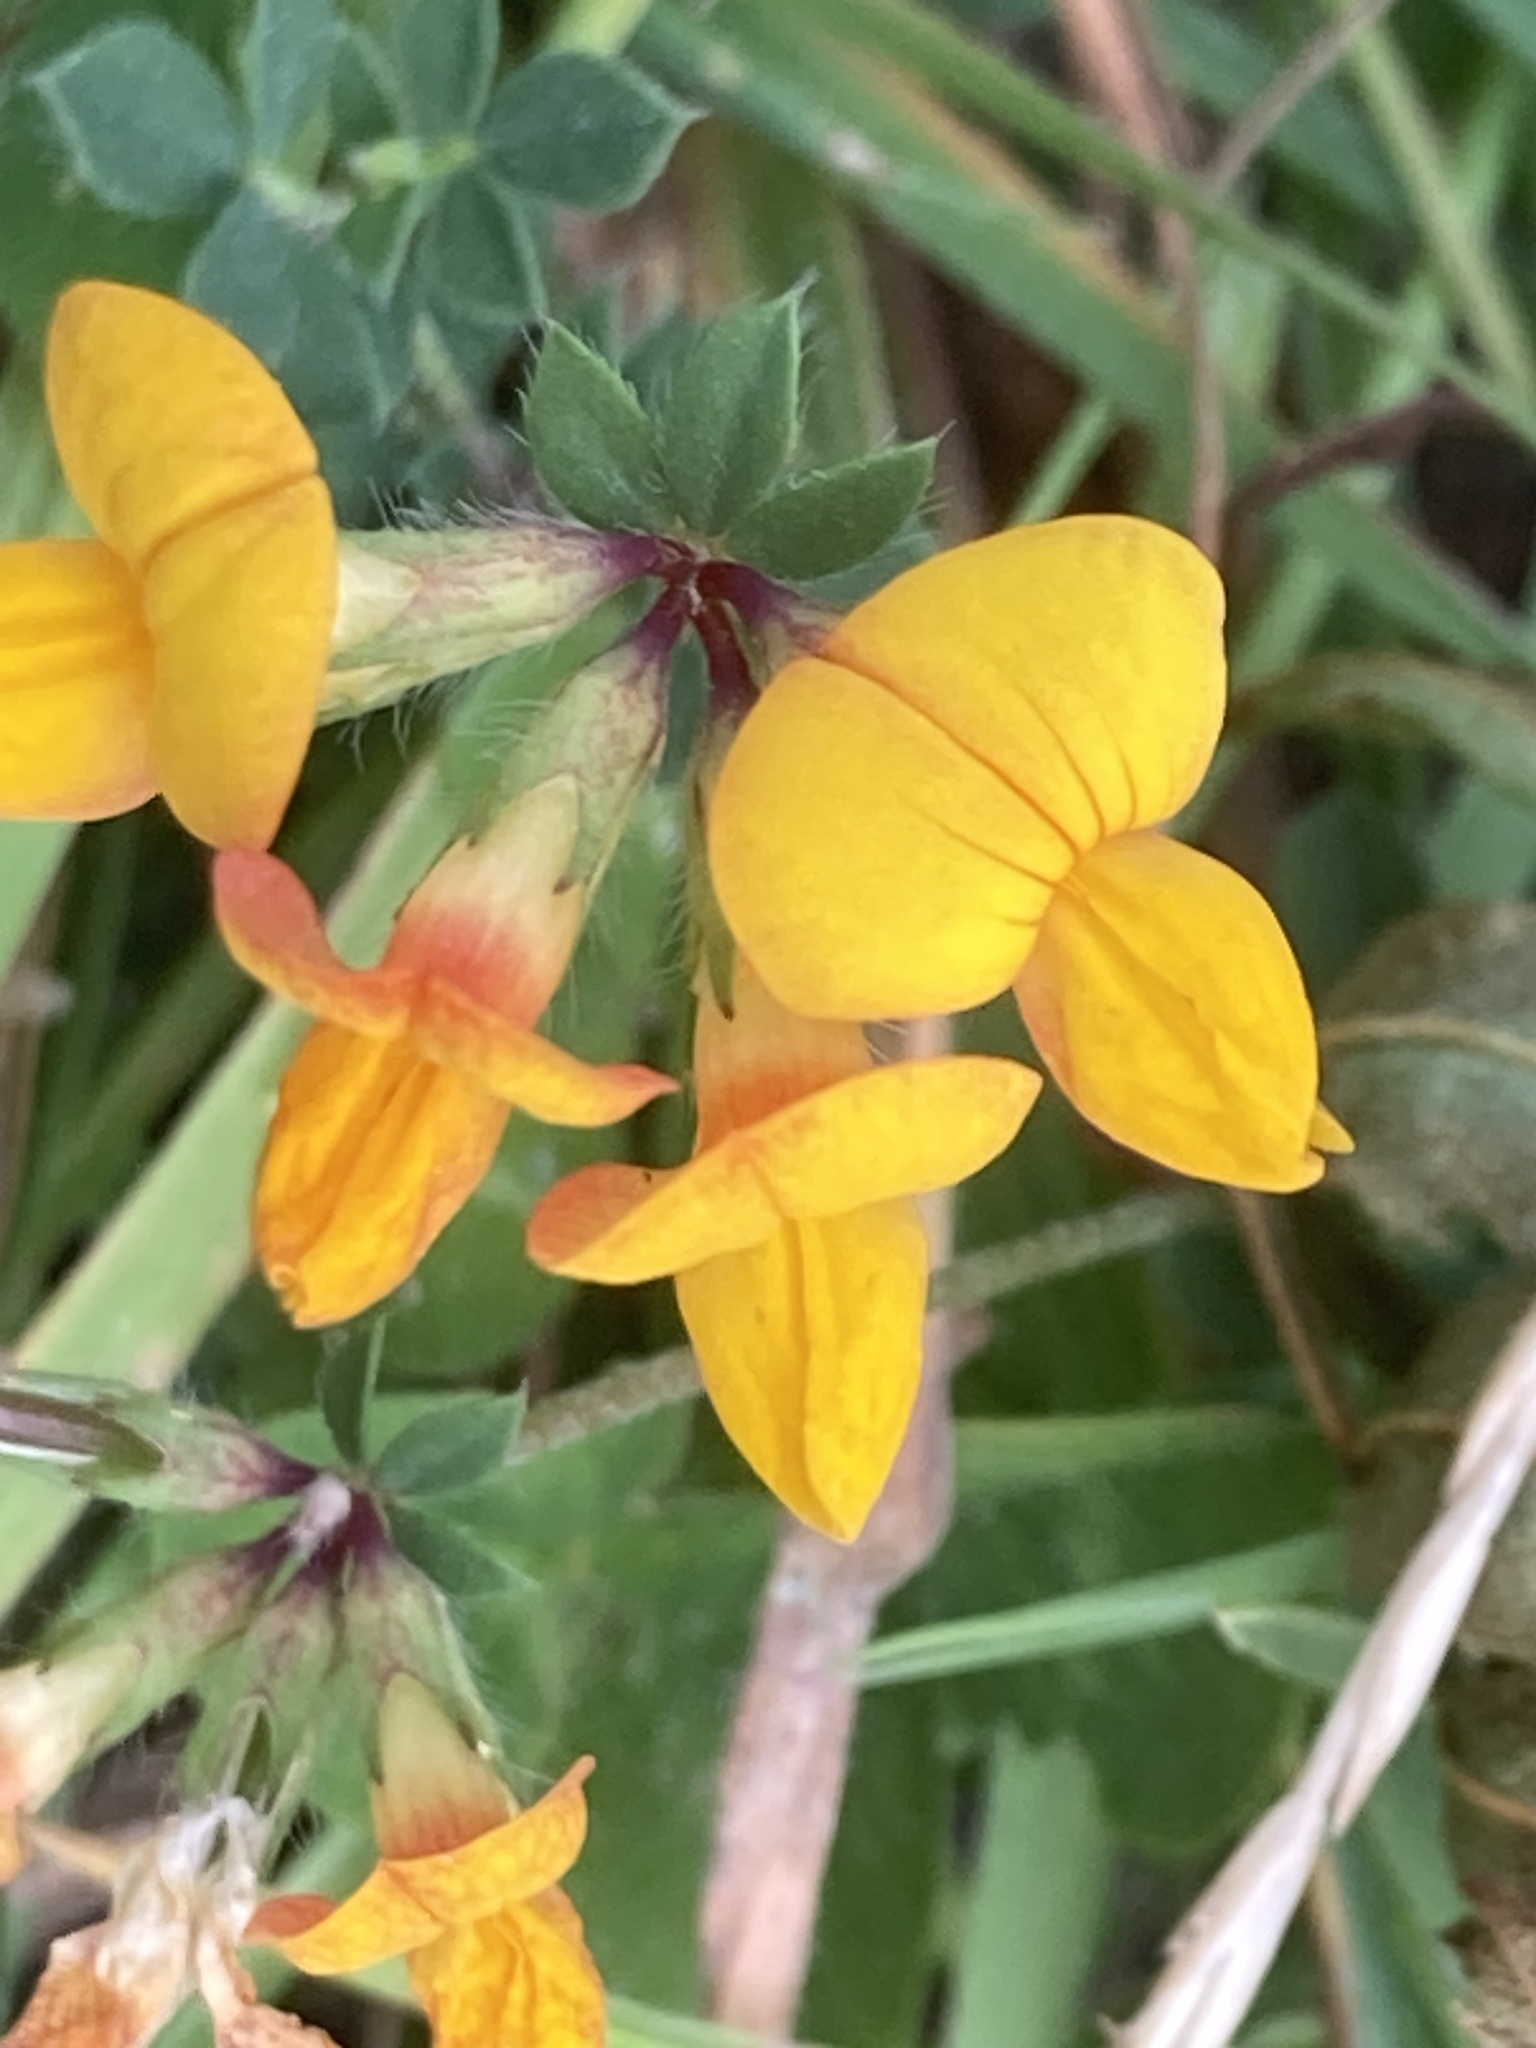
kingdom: Plantae
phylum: Tracheophyta
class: Magnoliopsida
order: Fabales
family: Fabaceae
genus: Lotus
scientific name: Lotus corniculatus
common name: Common bird's-foot-trefoil
